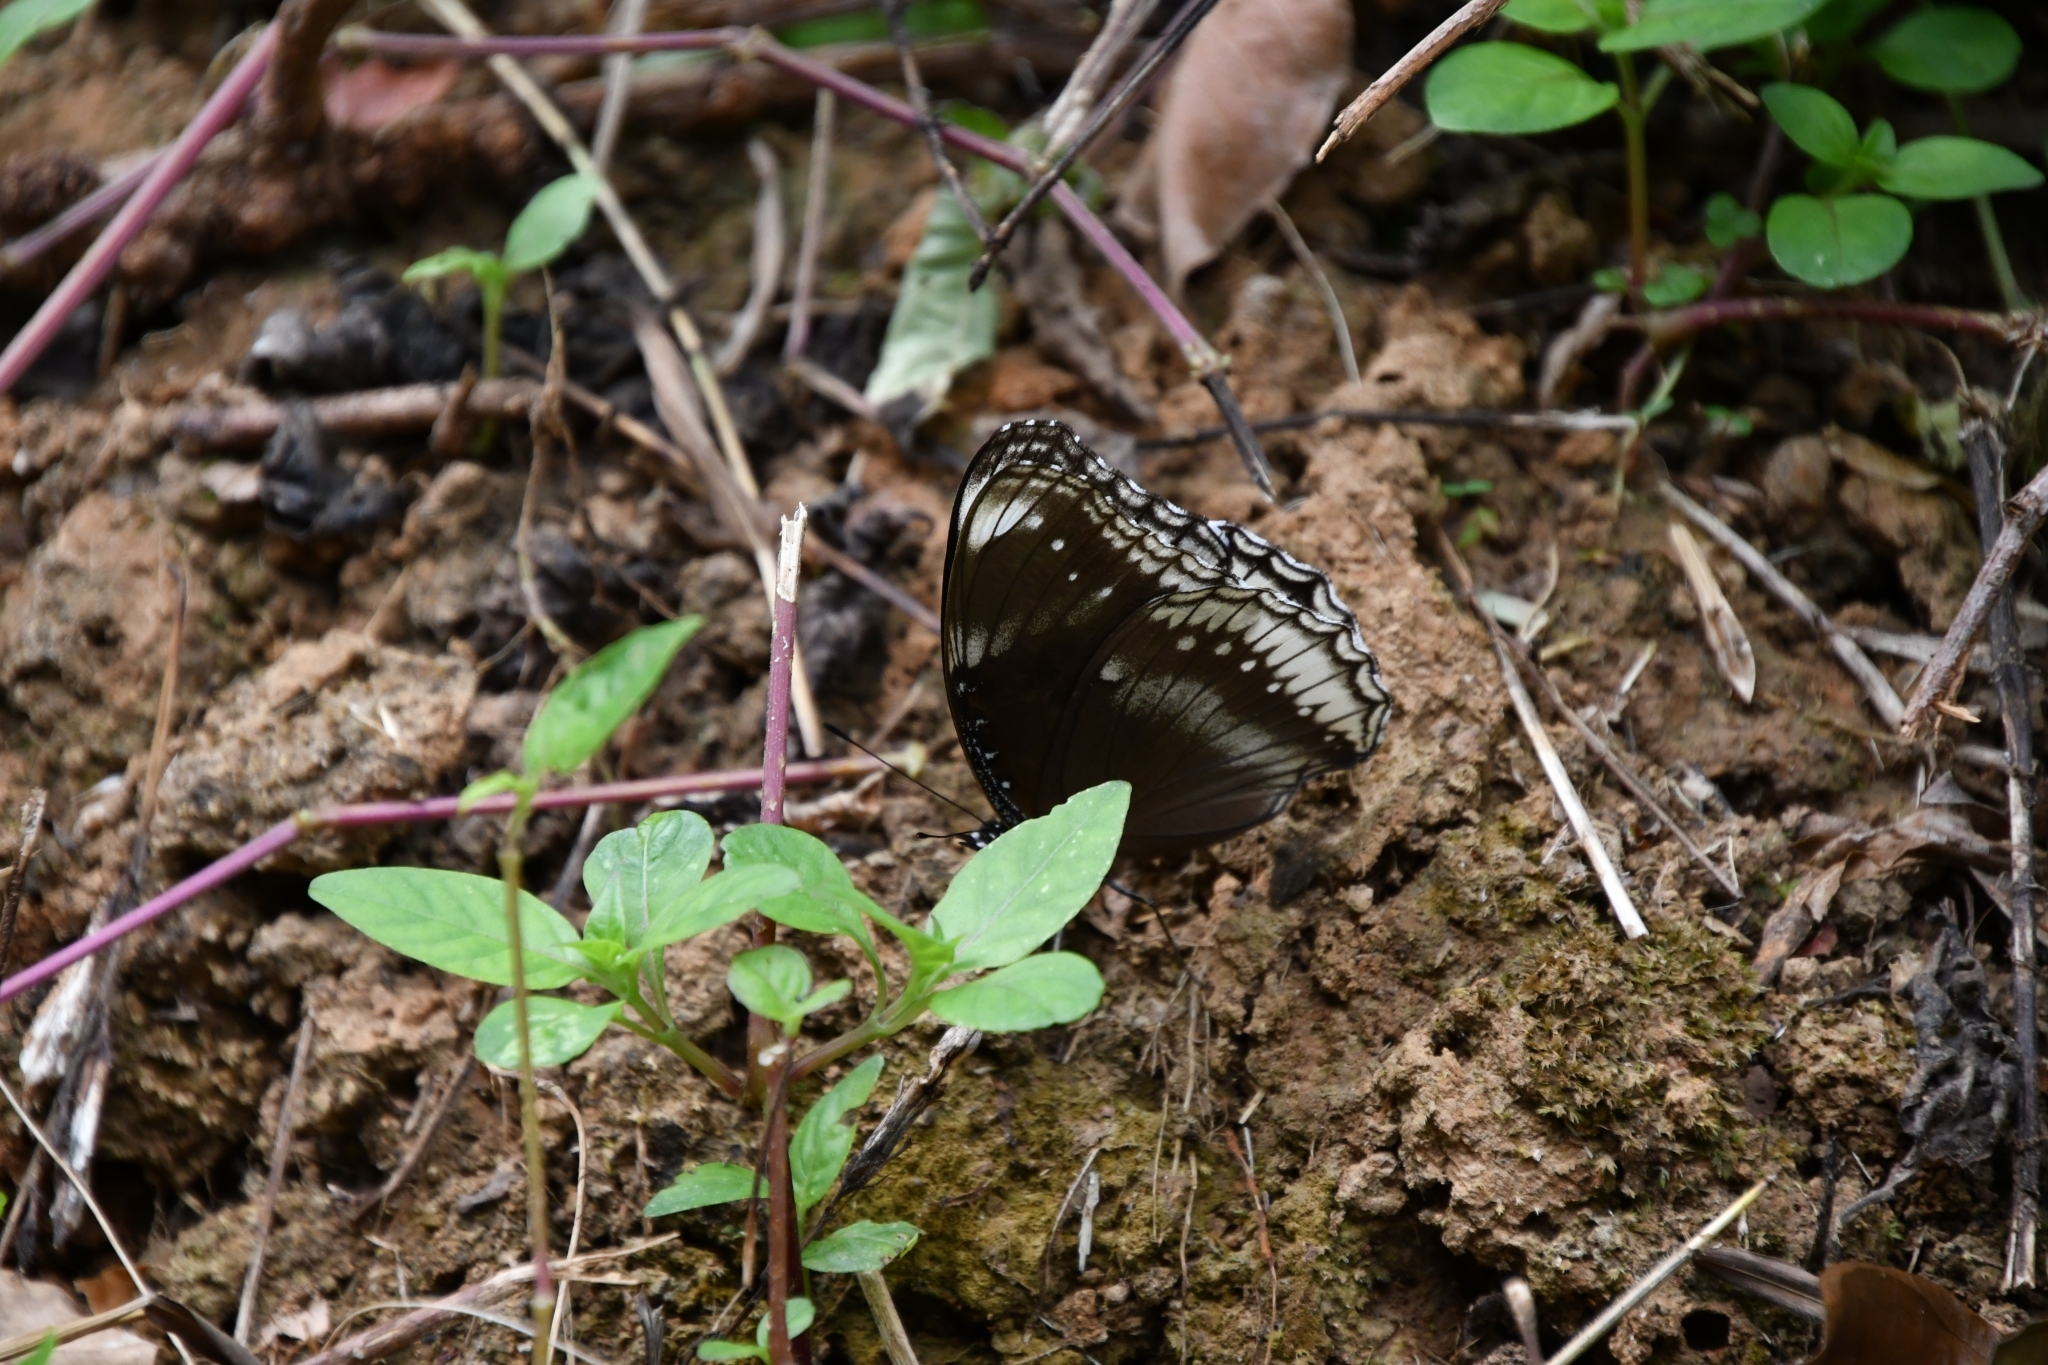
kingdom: Animalia
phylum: Arthropoda
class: Insecta
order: Lepidoptera
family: Nymphalidae
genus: Hypolimnas
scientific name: Hypolimnas bolina
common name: Great eggfly
